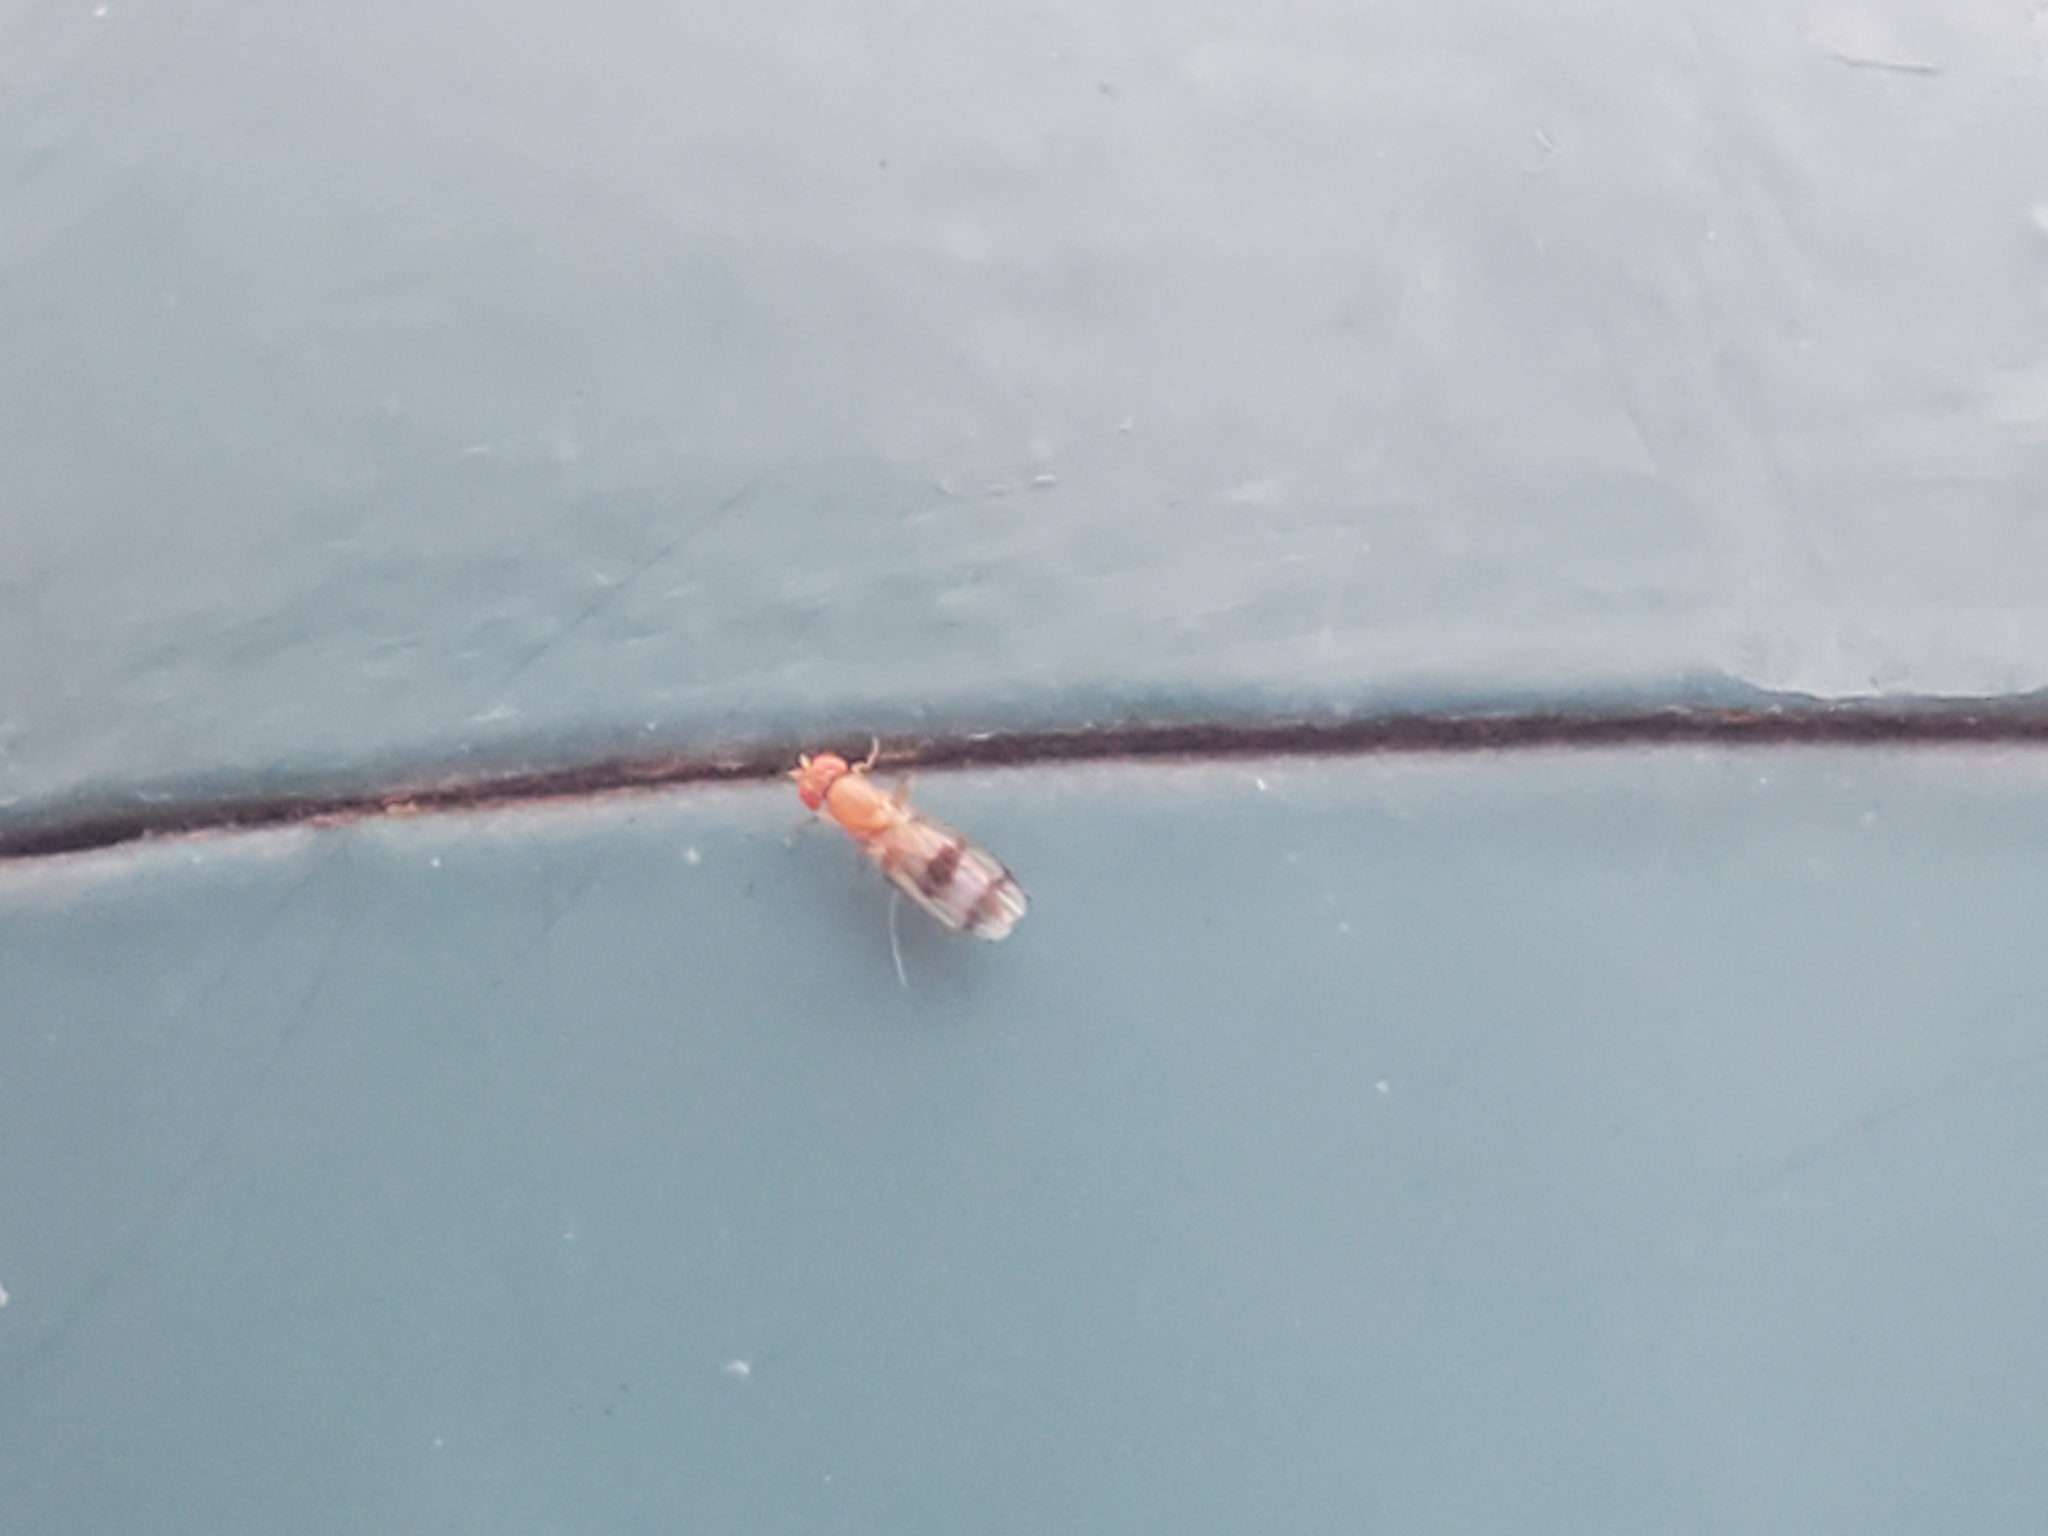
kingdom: Animalia
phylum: Arthropoda
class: Insecta
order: Diptera
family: Drosophilidae
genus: Chymomyza
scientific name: Chymomyza amoena
